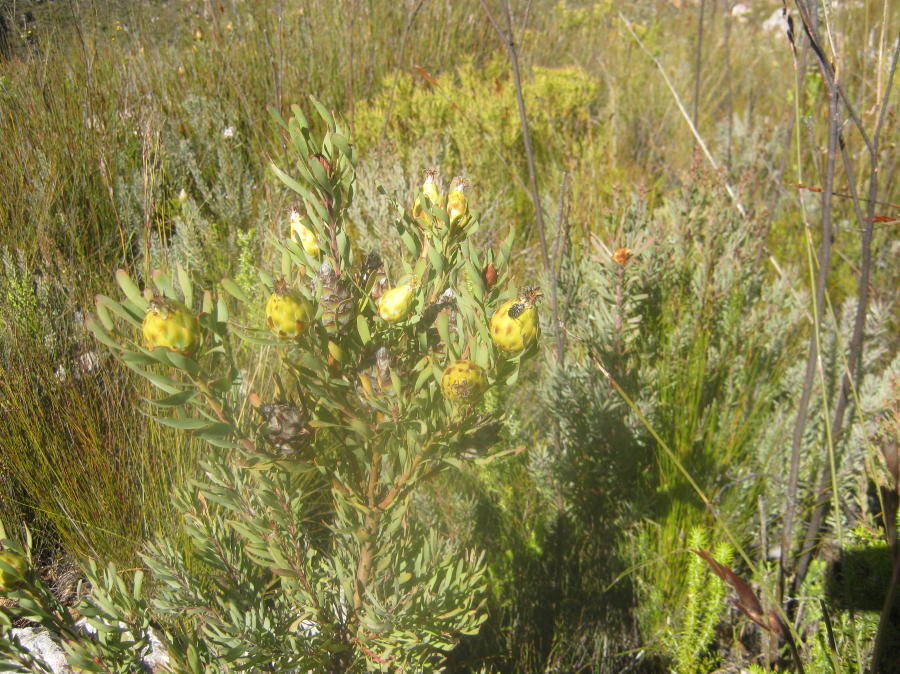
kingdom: Plantae
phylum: Tracheophyta
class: Magnoliopsida
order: Proteales
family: Proteaceae
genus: Leucadendron
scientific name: Leucadendron rubrum
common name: Spinning top
